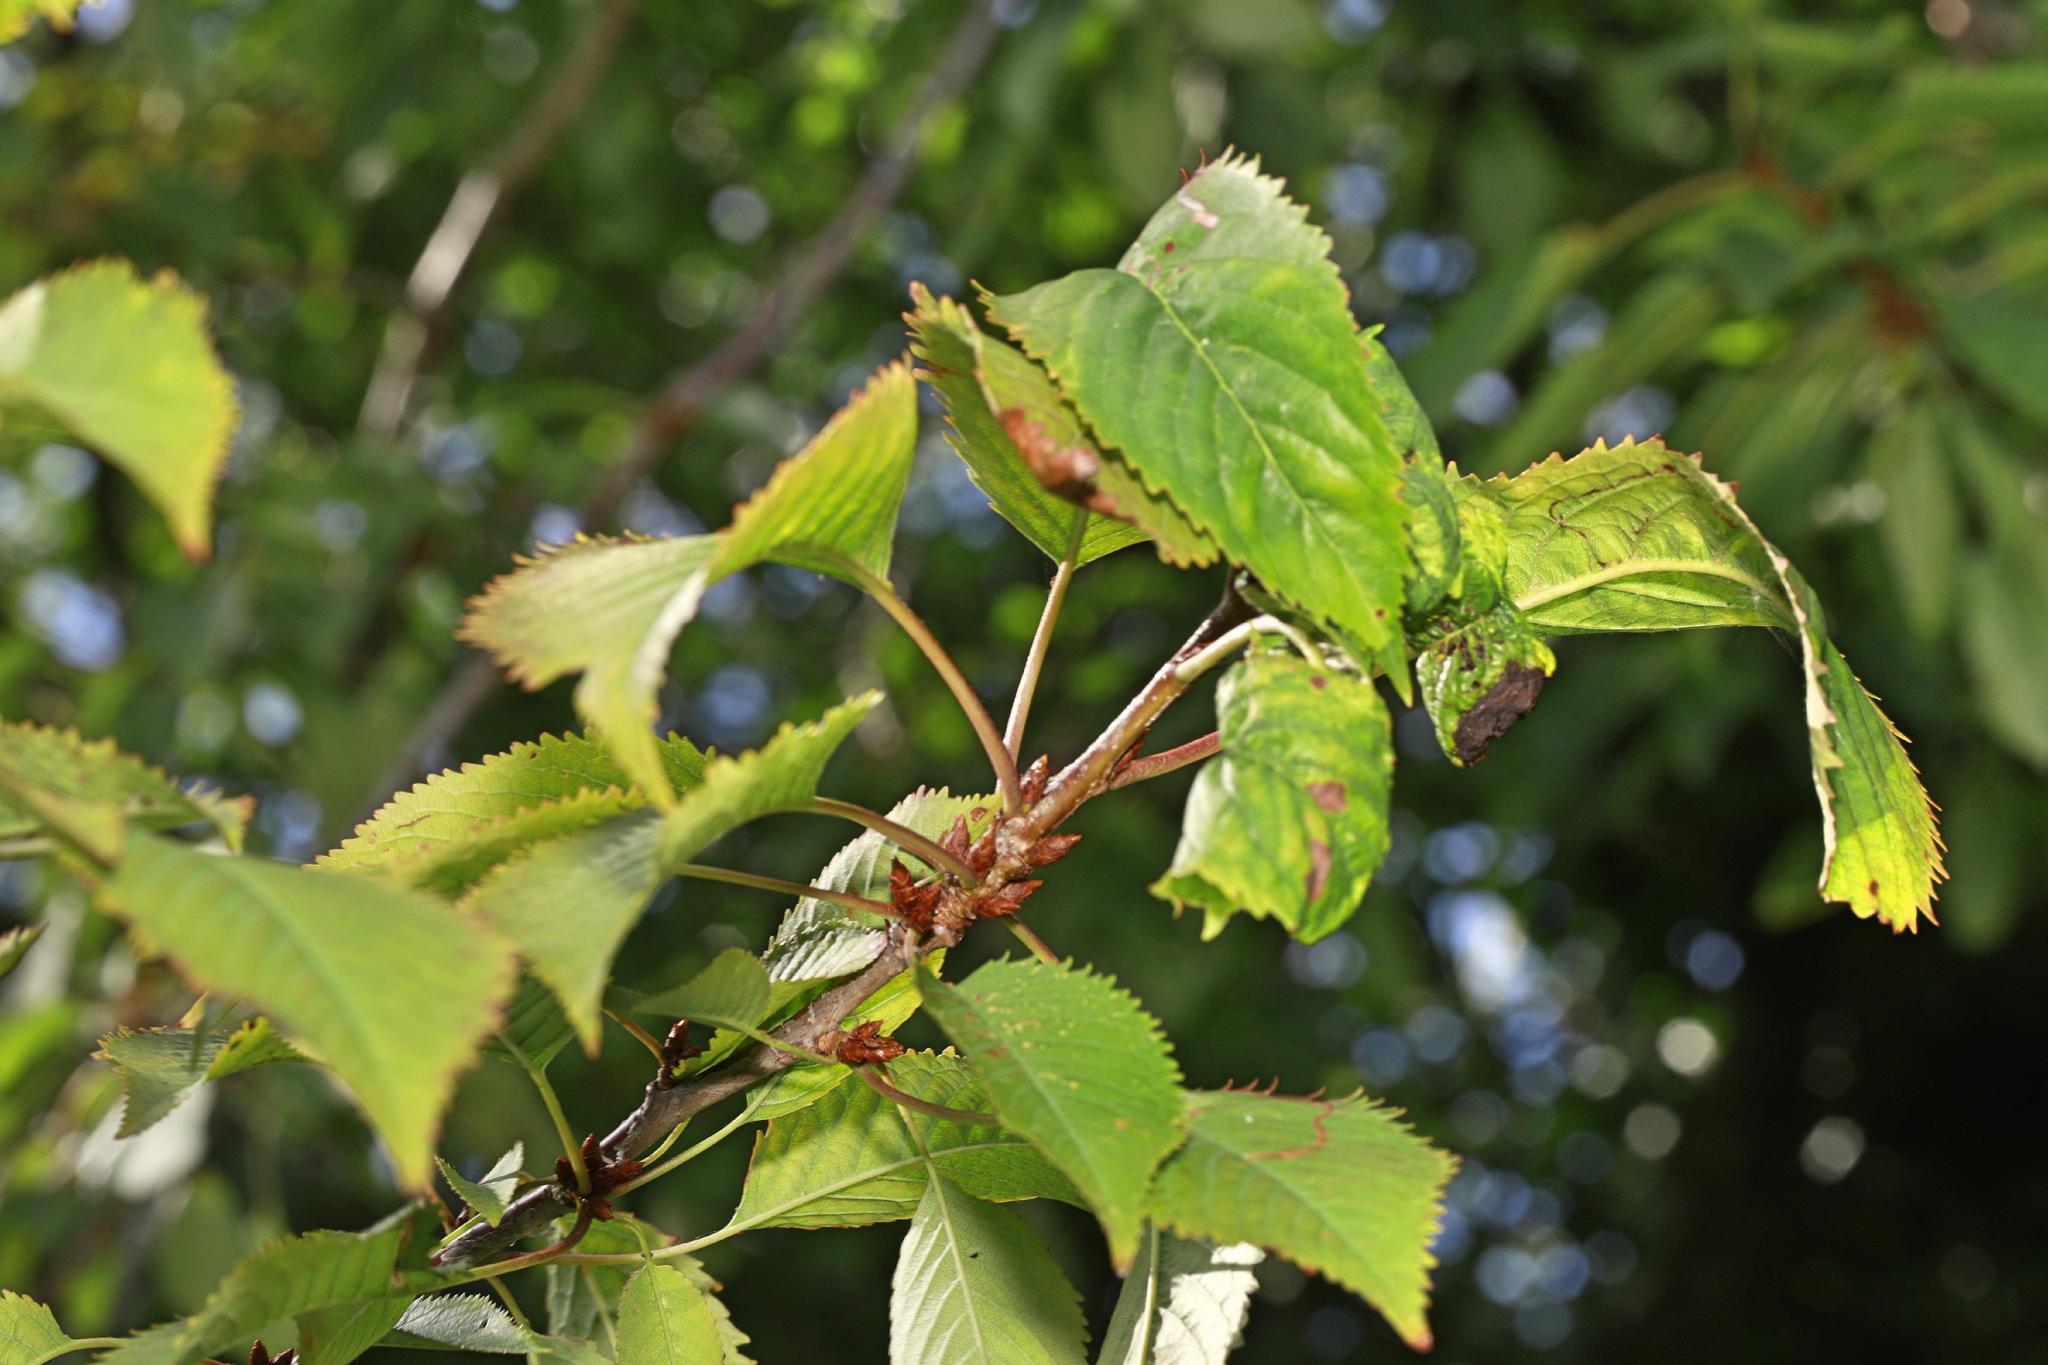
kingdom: Animalia
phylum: Arthropoda
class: Insecta
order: Hemiptera
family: Aphididae
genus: Myzus
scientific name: Myzus cerasi
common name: Black cherry aphid
